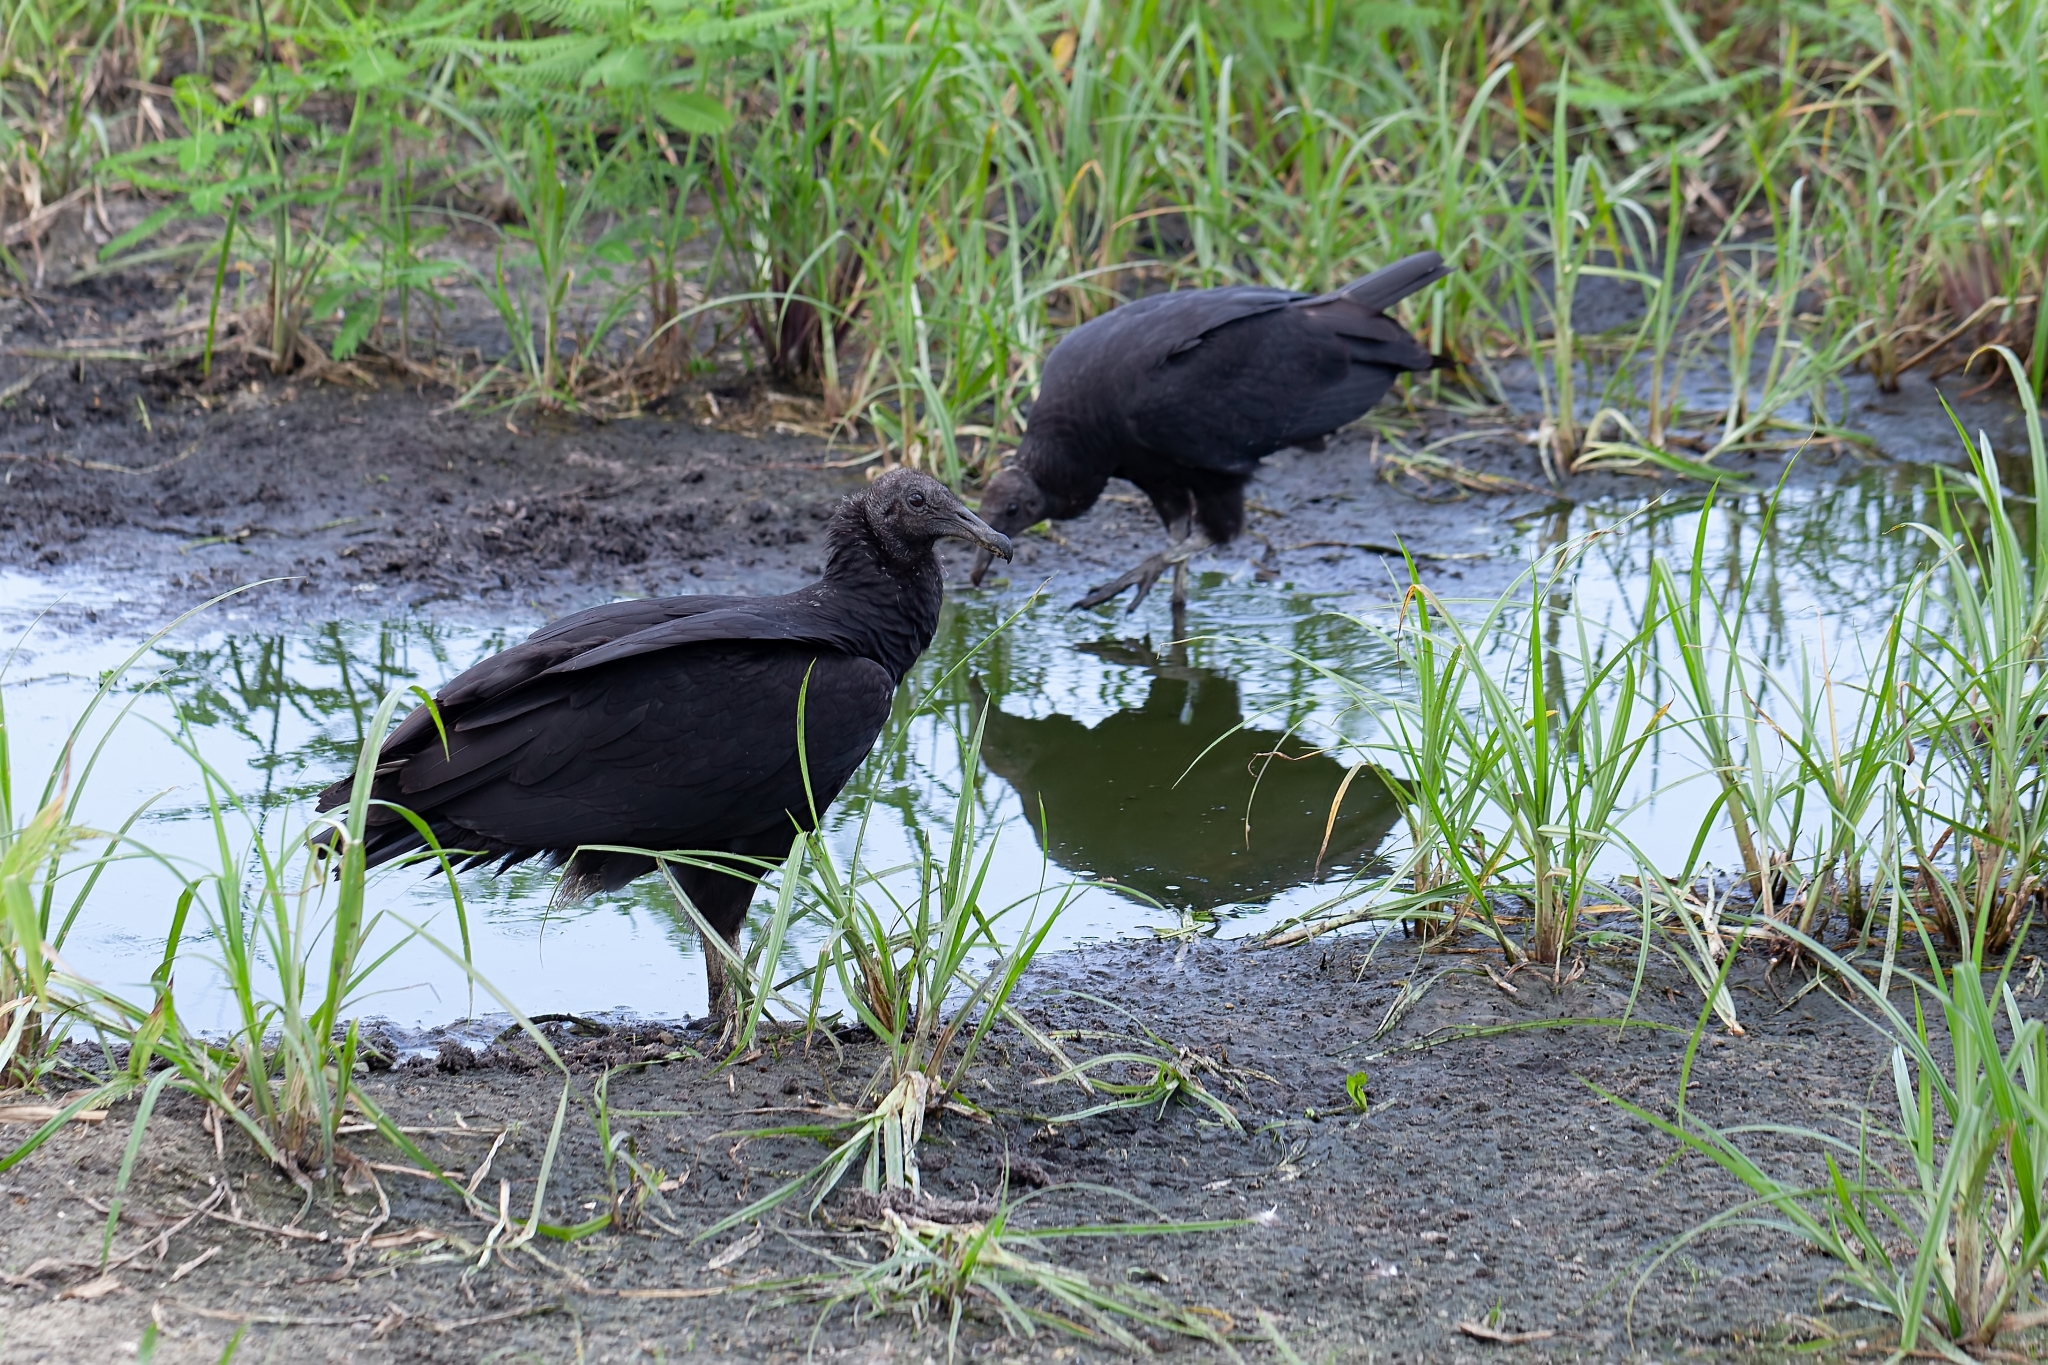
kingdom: Animalia
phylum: Chordata
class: Aves
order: Accipitriformes
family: Cathartidae
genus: Coragyps
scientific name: Coragyps atratus
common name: Black vulture
